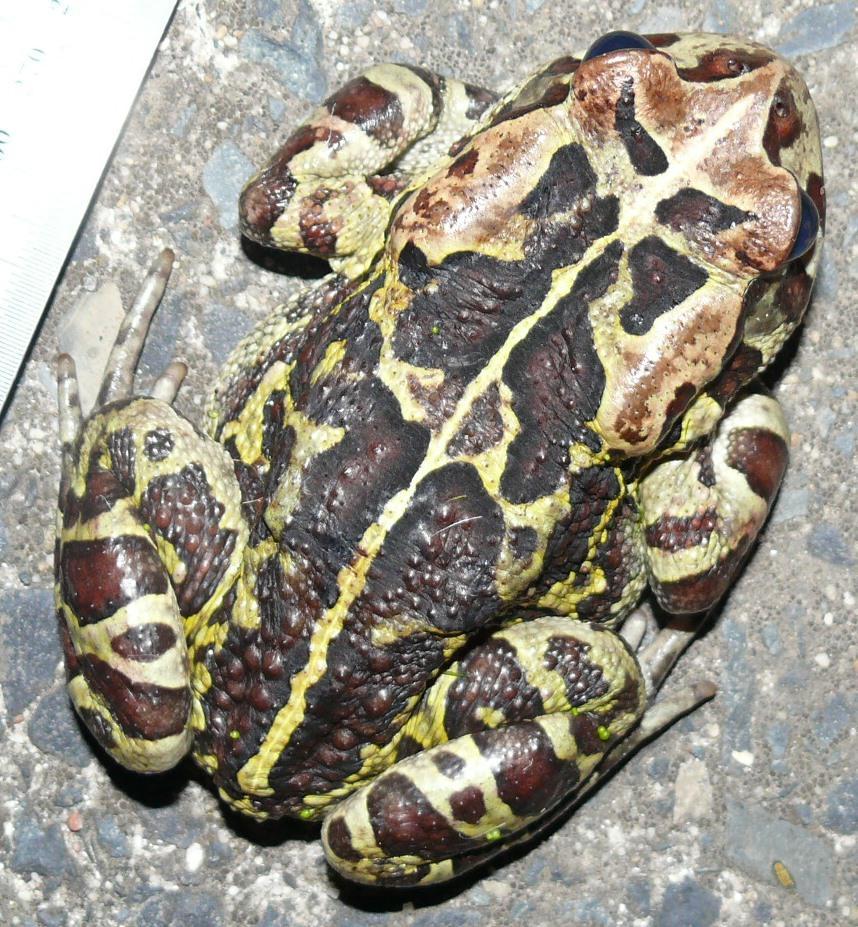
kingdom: Animalia
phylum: Chordata
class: Amphibia
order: Anura
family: Bufonidae
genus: Sclerophrys
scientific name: Sclerophrys pantherina
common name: Panther toad
